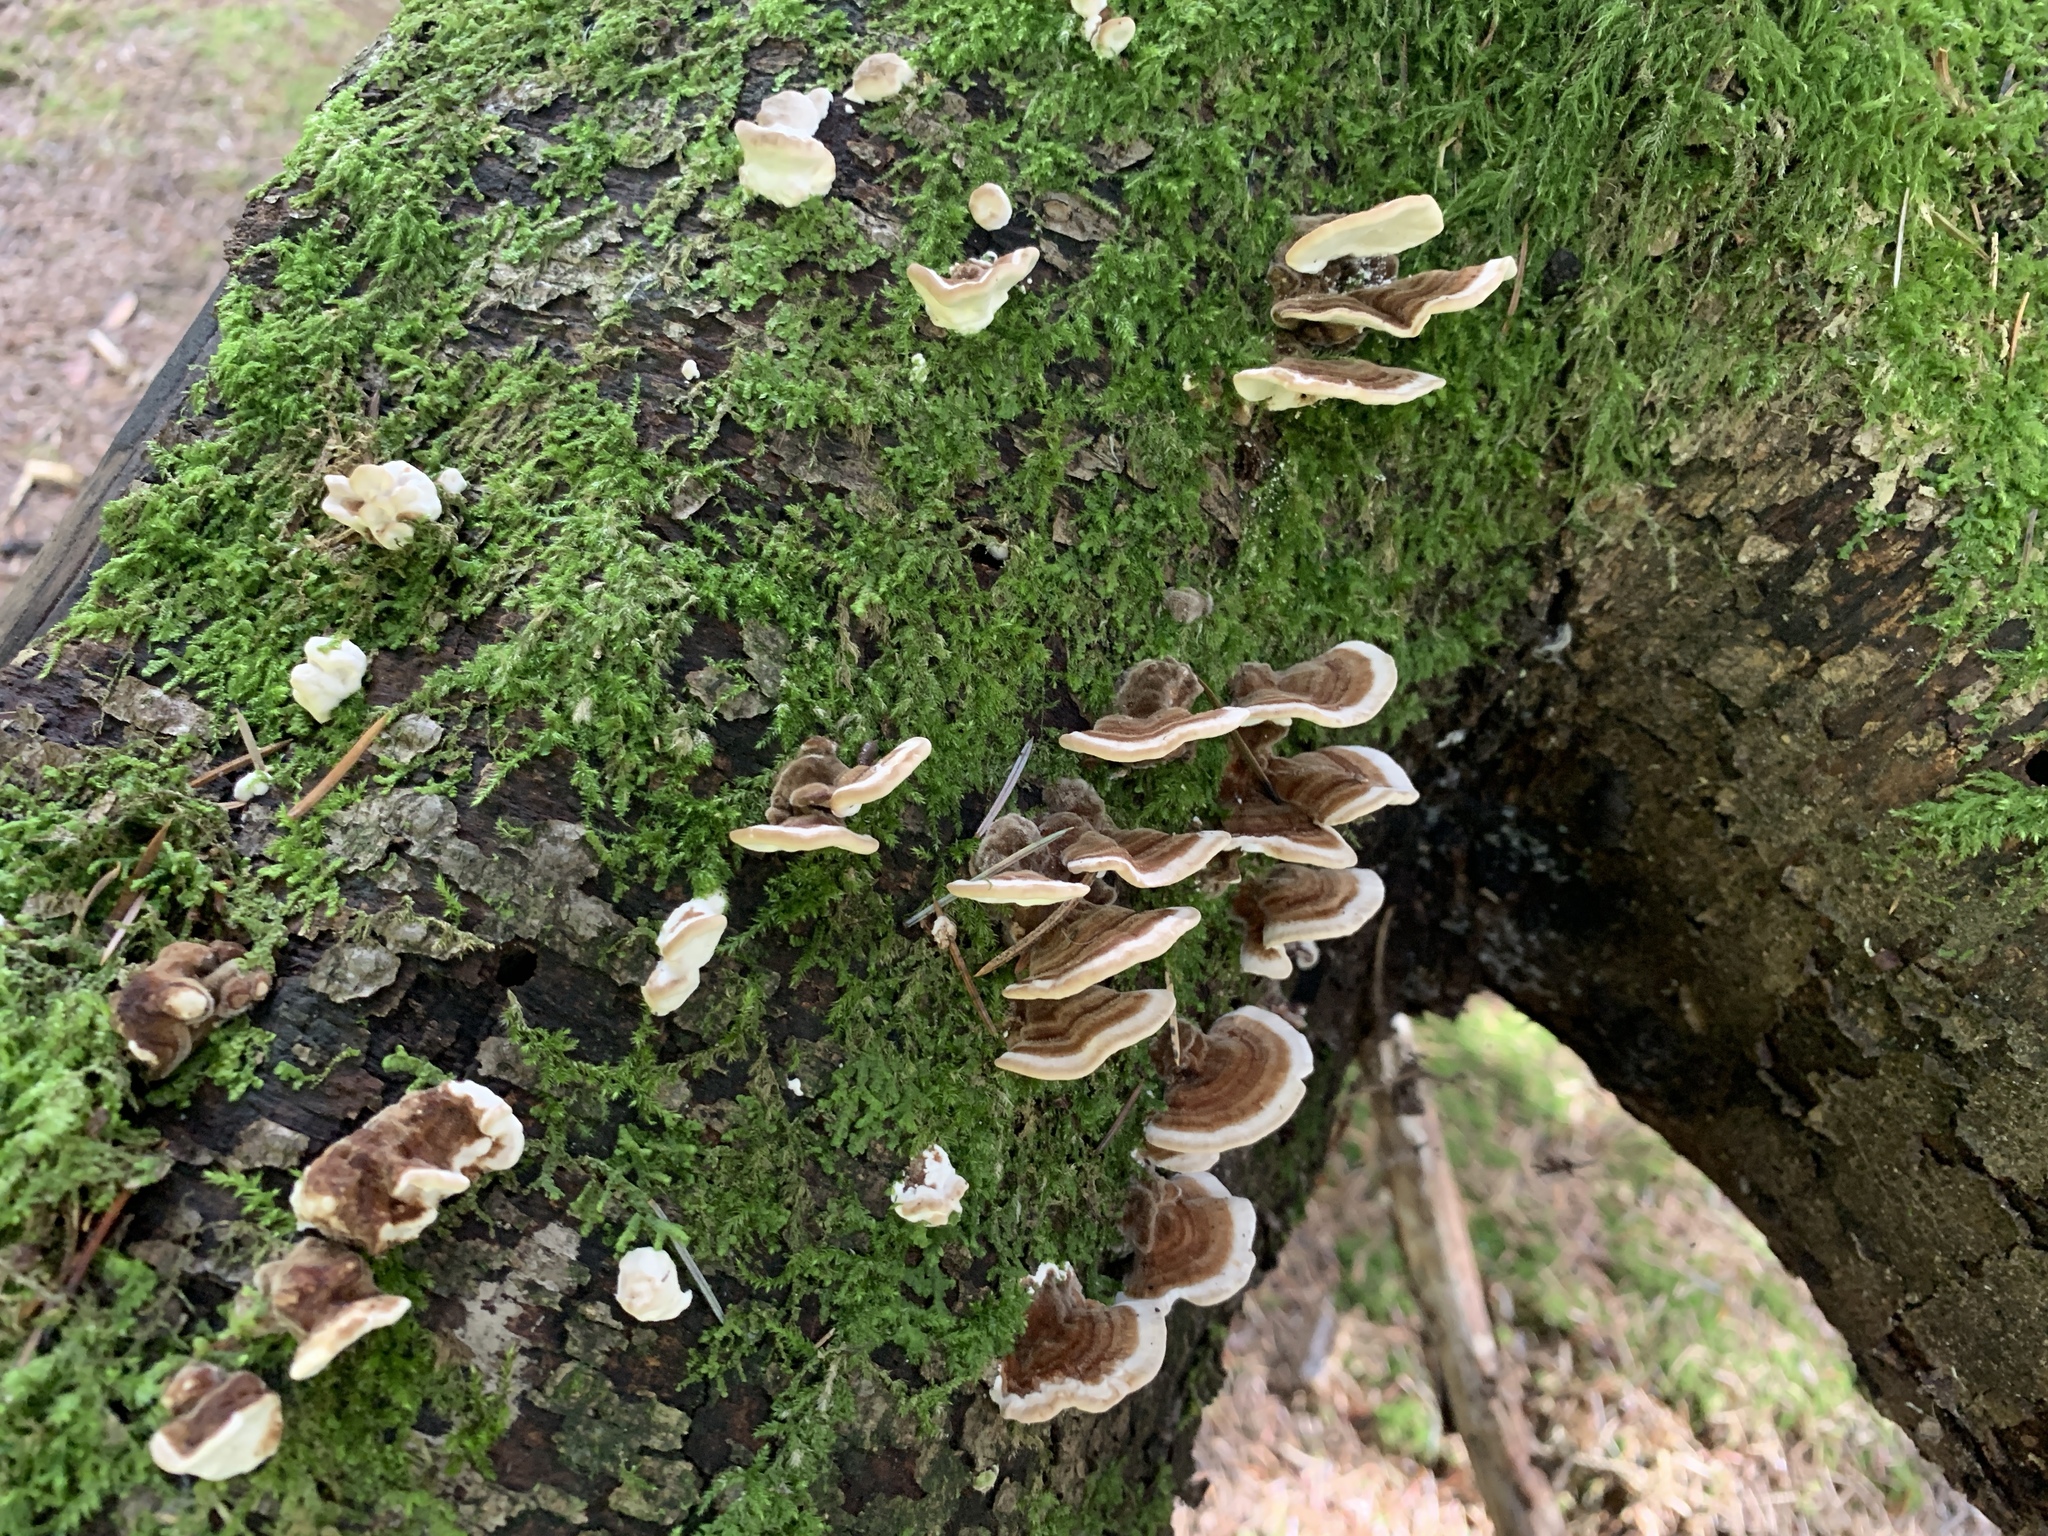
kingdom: Fungi
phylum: Basidiomycota
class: Agaricomycetes
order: Polyporales
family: Polyporaceae
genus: Trametes
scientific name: Trametes versicolor
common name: Turkeytail
